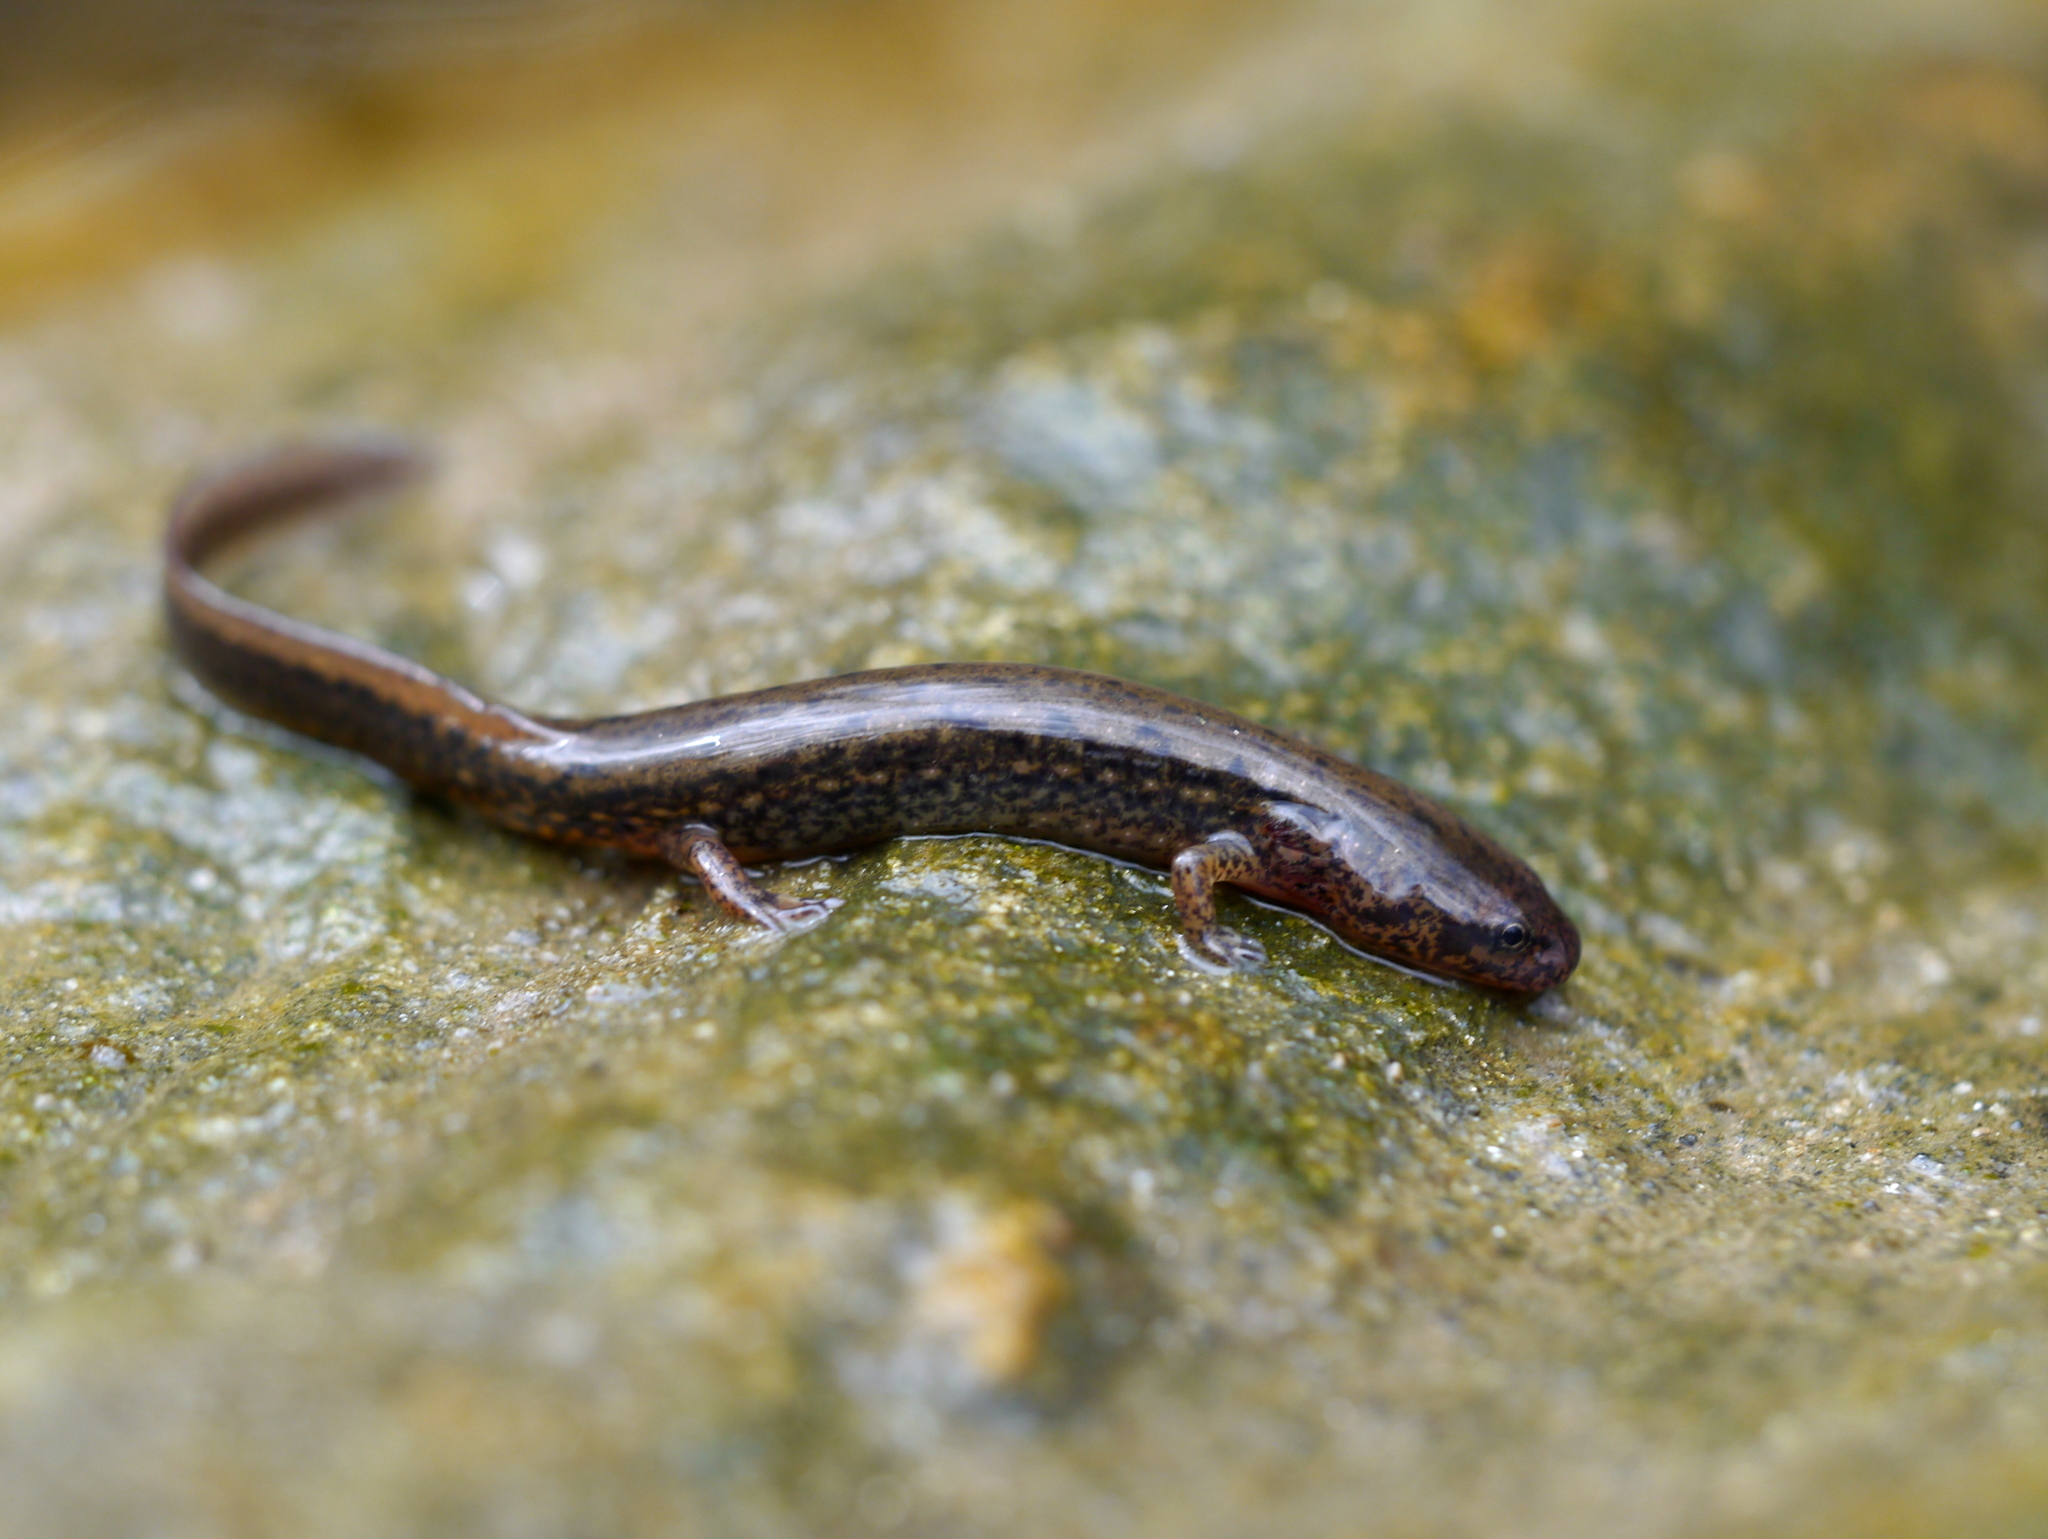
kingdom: Animalia
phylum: Chordata
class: Amphibia
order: Caudata
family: Plethodontidae
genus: Eurycea
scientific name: Eurycea bislineata
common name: Northern two-lined salamander
